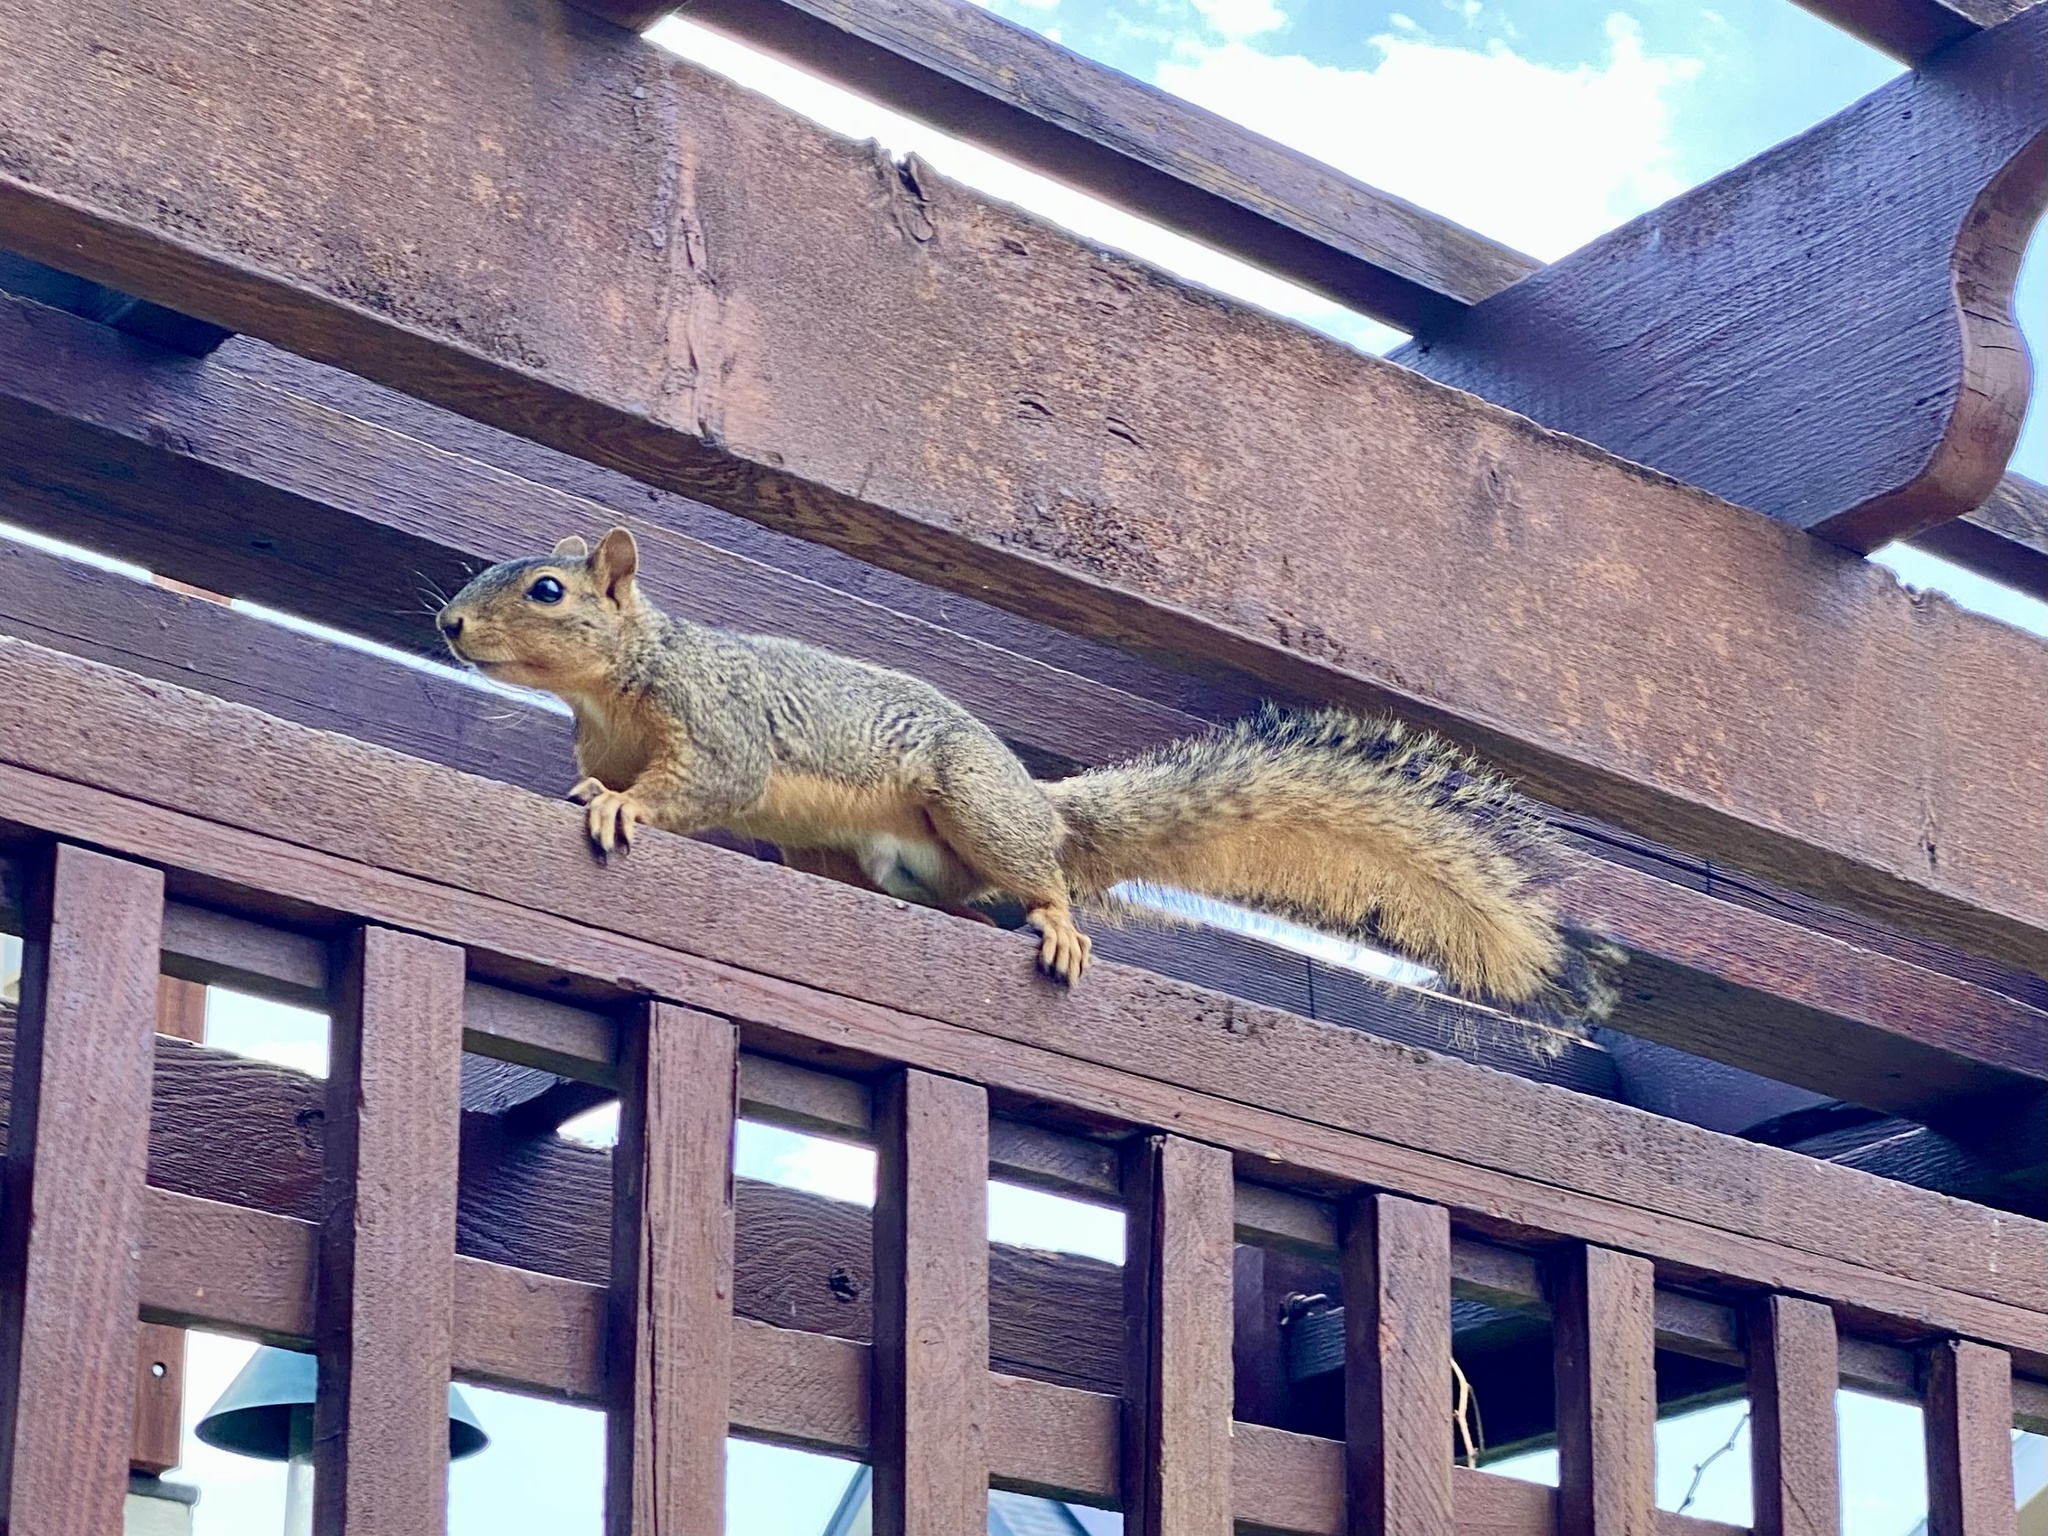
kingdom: Animalia
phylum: Chordata
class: Mammalia
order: Rodentia
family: Sciuridae
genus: Sciurus
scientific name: Sciurus niger
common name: Fox squirrel
